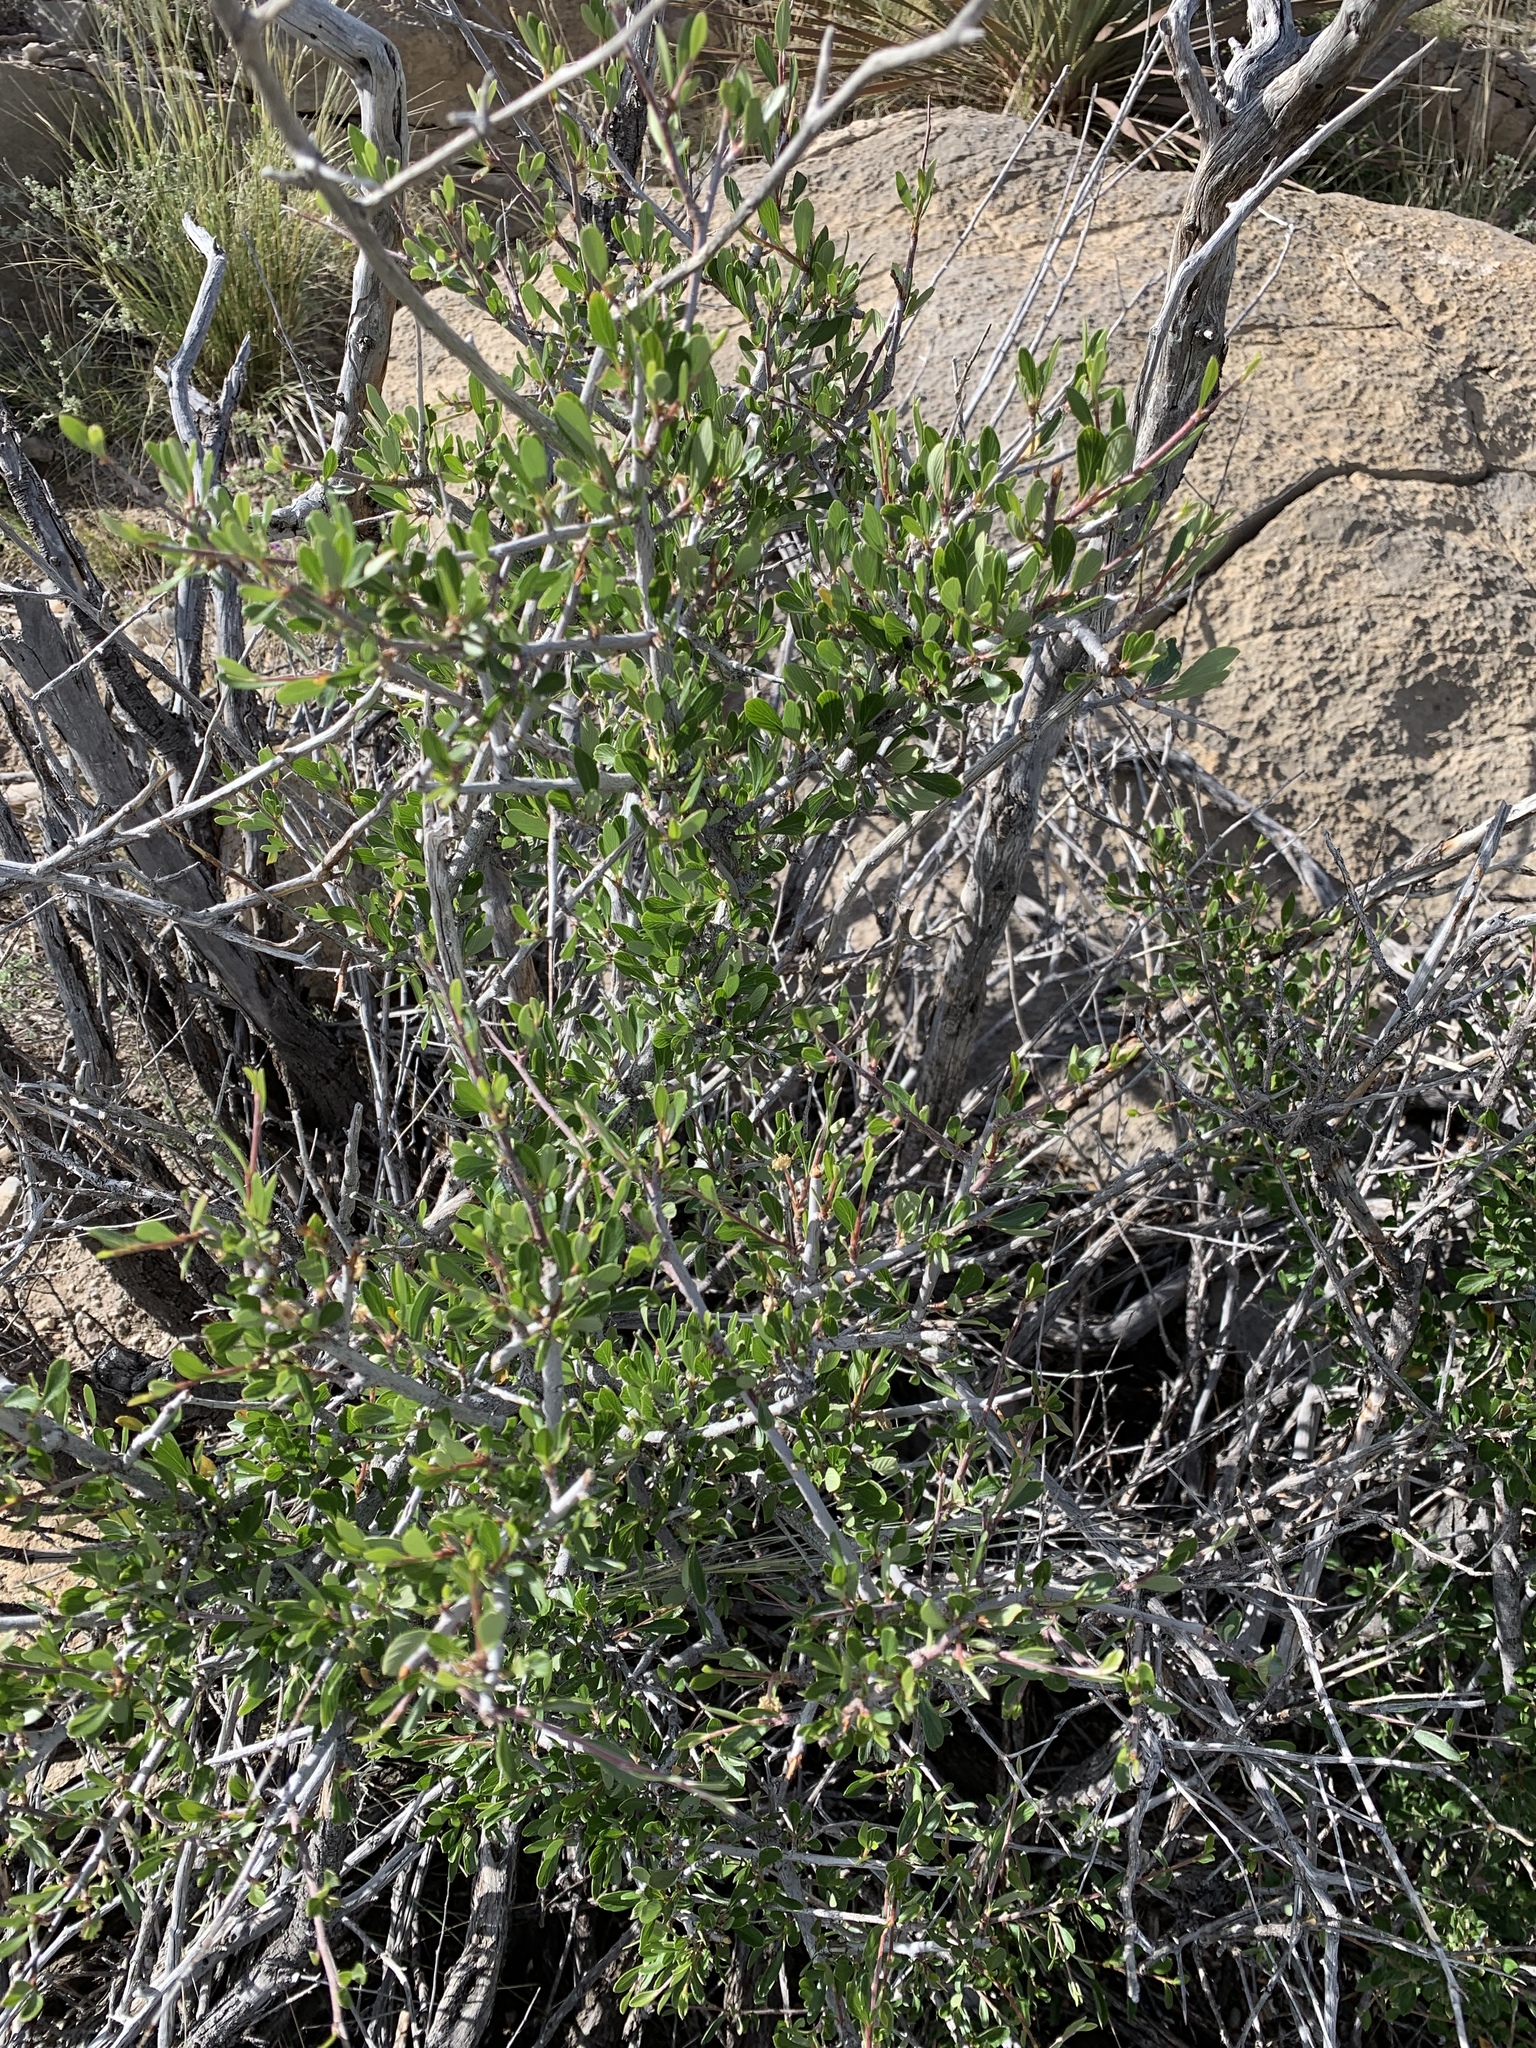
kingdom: Plantae
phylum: Tracheophyta
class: Magnoliopsida
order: Rosales
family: Rosaceae
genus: Cercocarpus
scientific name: Cercocarpus breviflorus
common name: Wright's mountain-mahogany
